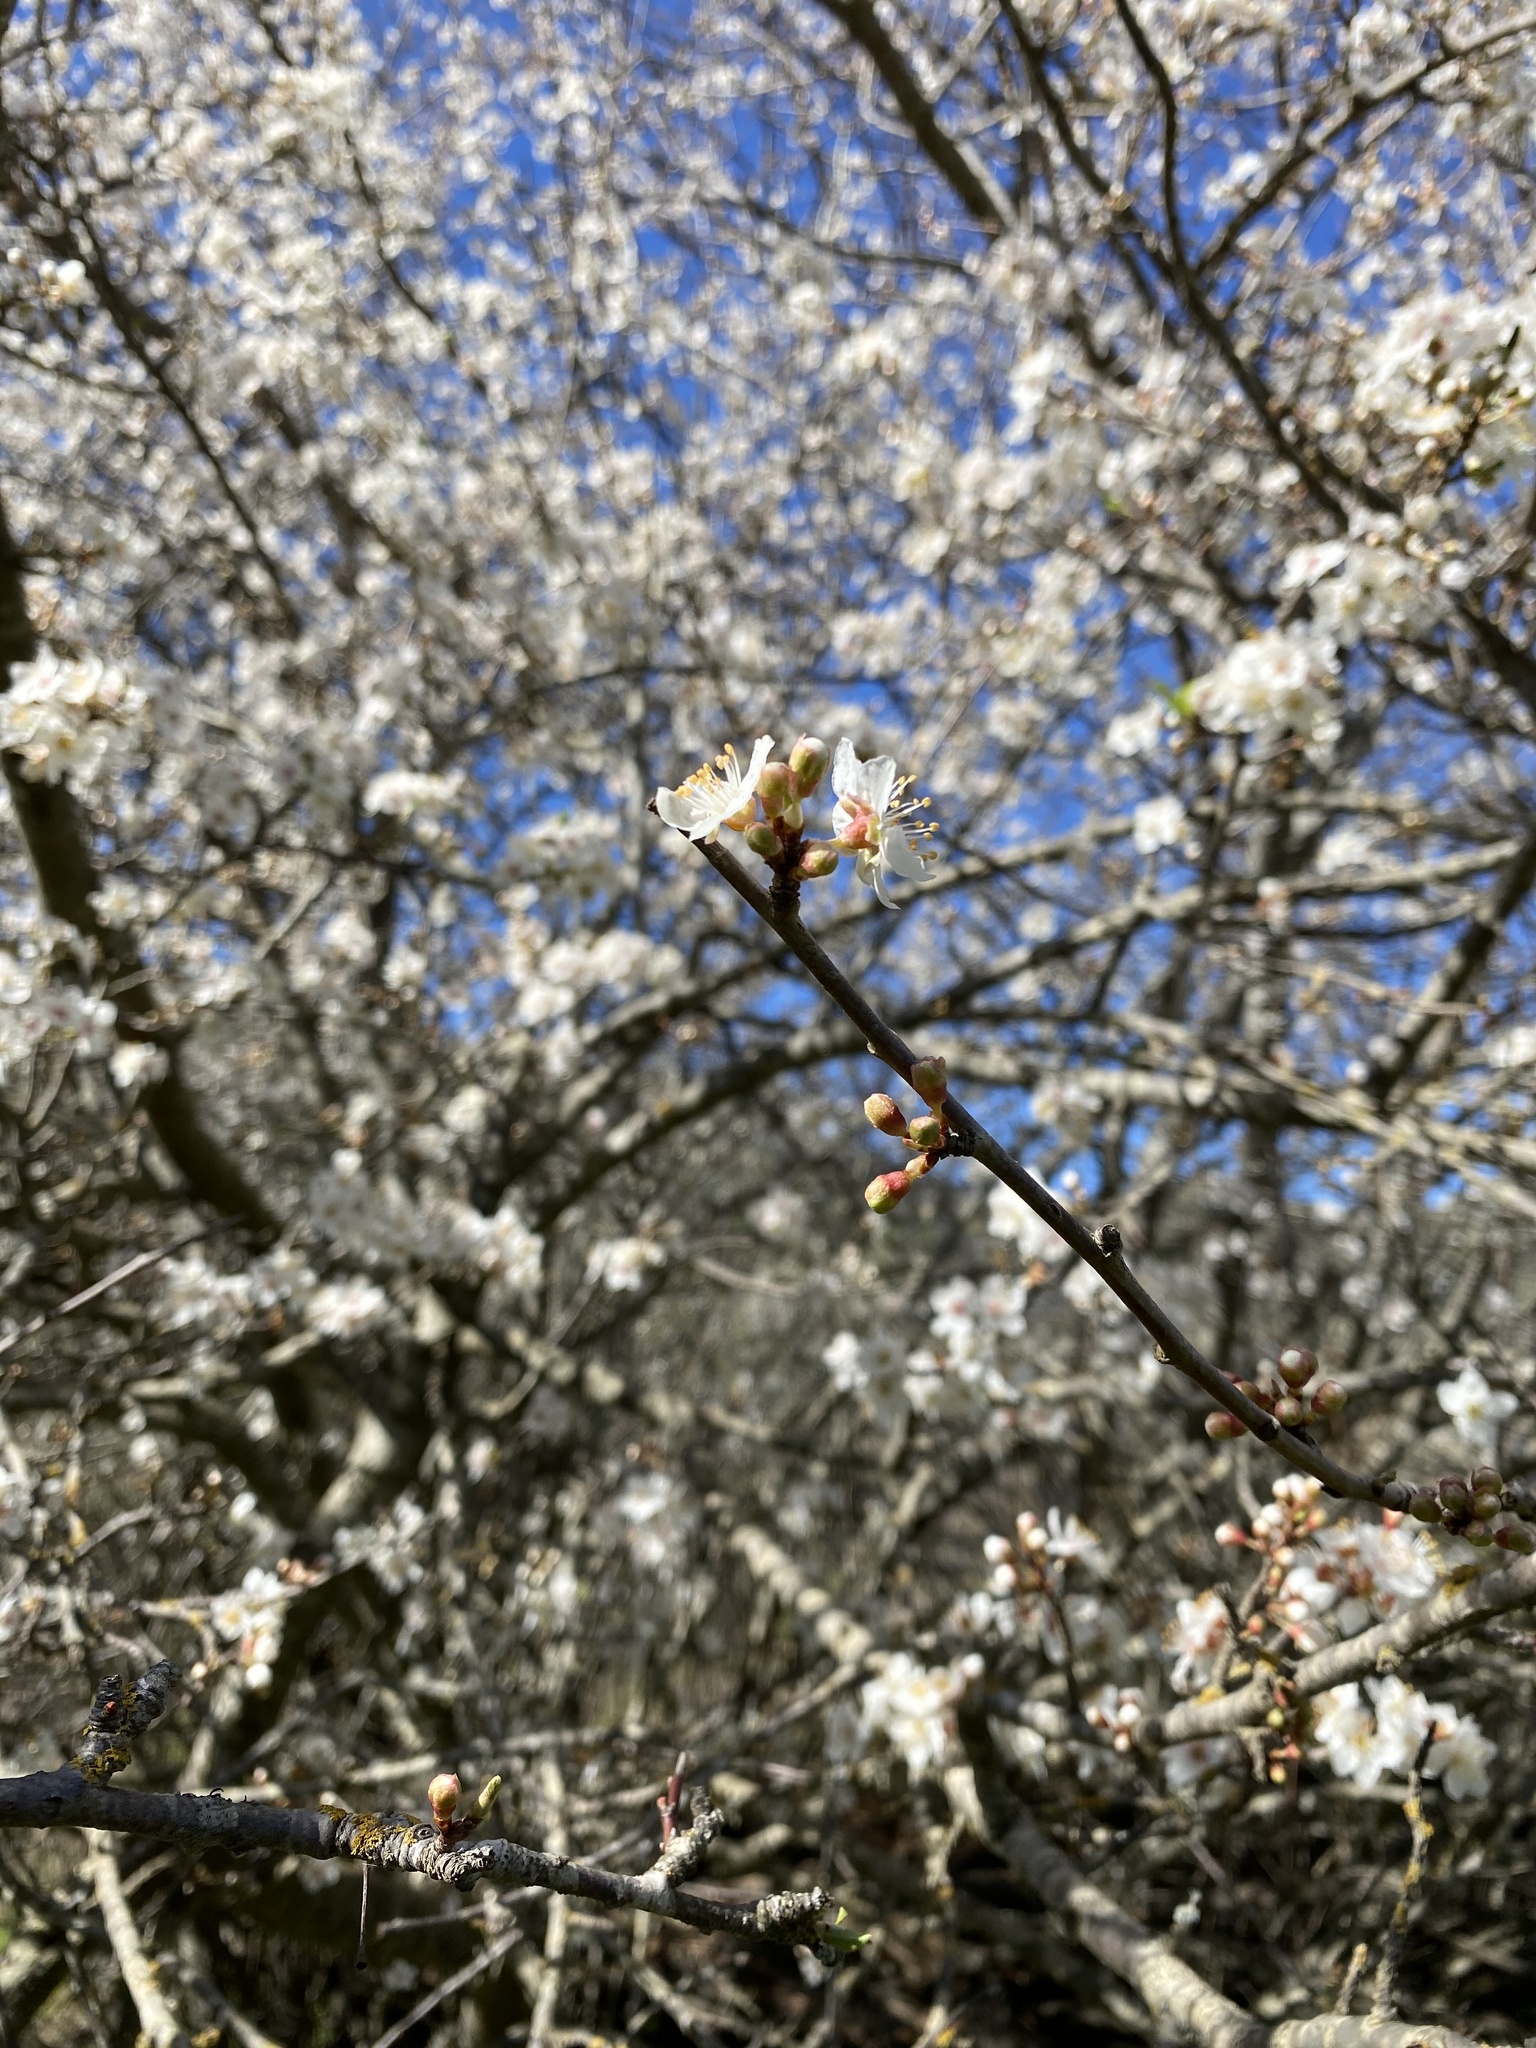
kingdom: Plantae
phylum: Tracheophyta
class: Magnoliopsida
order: Rosales
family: Rosaceae
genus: Prunus
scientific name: Prunus cerasifera
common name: Cherry plum
